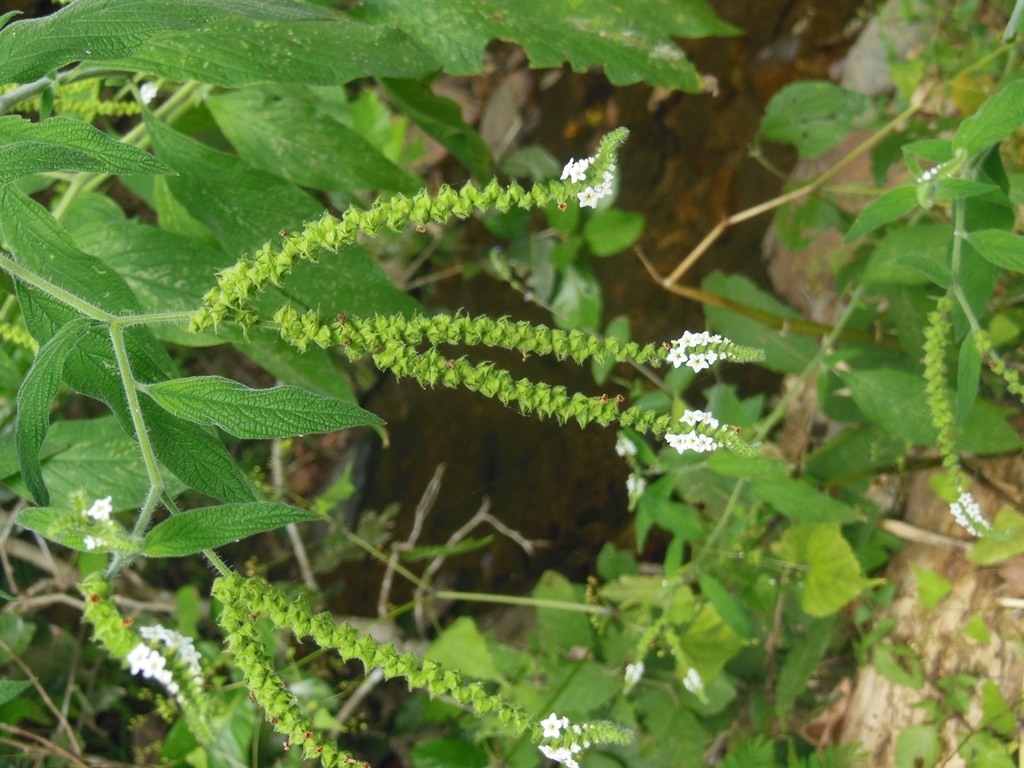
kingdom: Plantae
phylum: Tracheophyta
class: Magnoliopsida
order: Boraginales
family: Heliotropiaceae
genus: Tournefortia
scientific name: Tournefortia mutabilis
